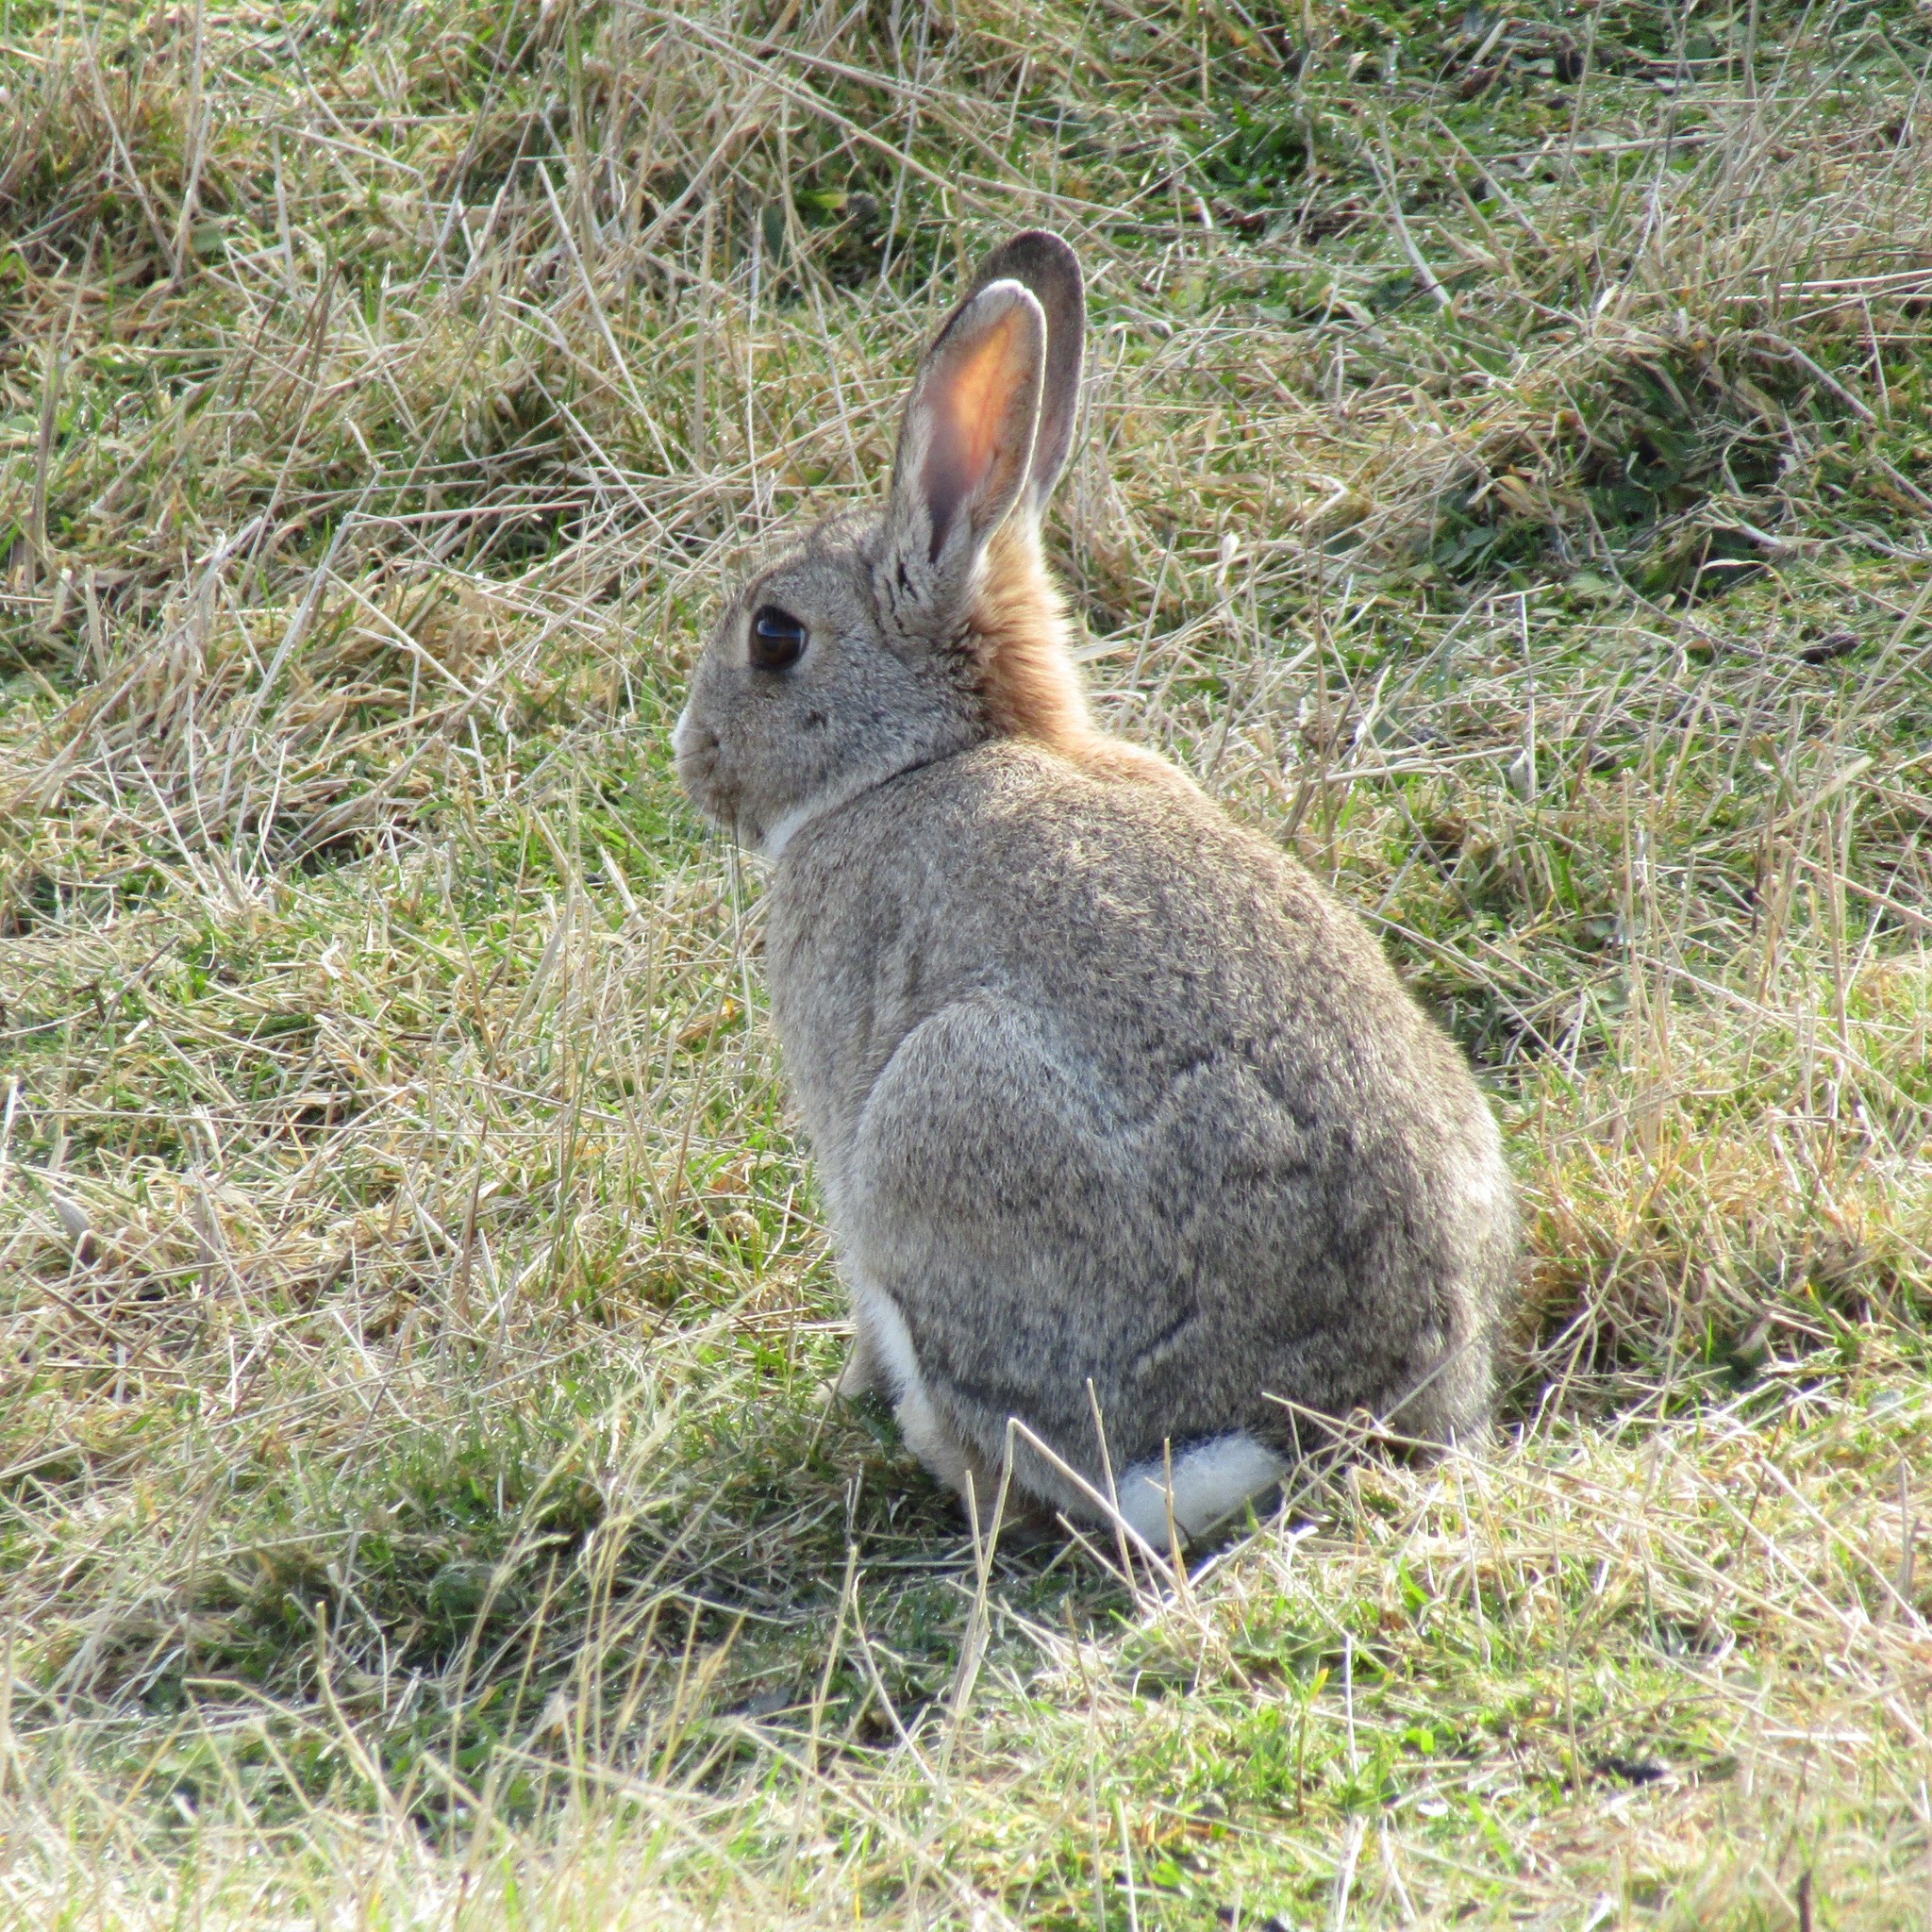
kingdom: Animalia
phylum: Chordata
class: Mammalia
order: Lagomorpha
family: Leporidae
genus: Oryctolagus
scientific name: Oryctolagus cuniculus
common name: European rabbit
